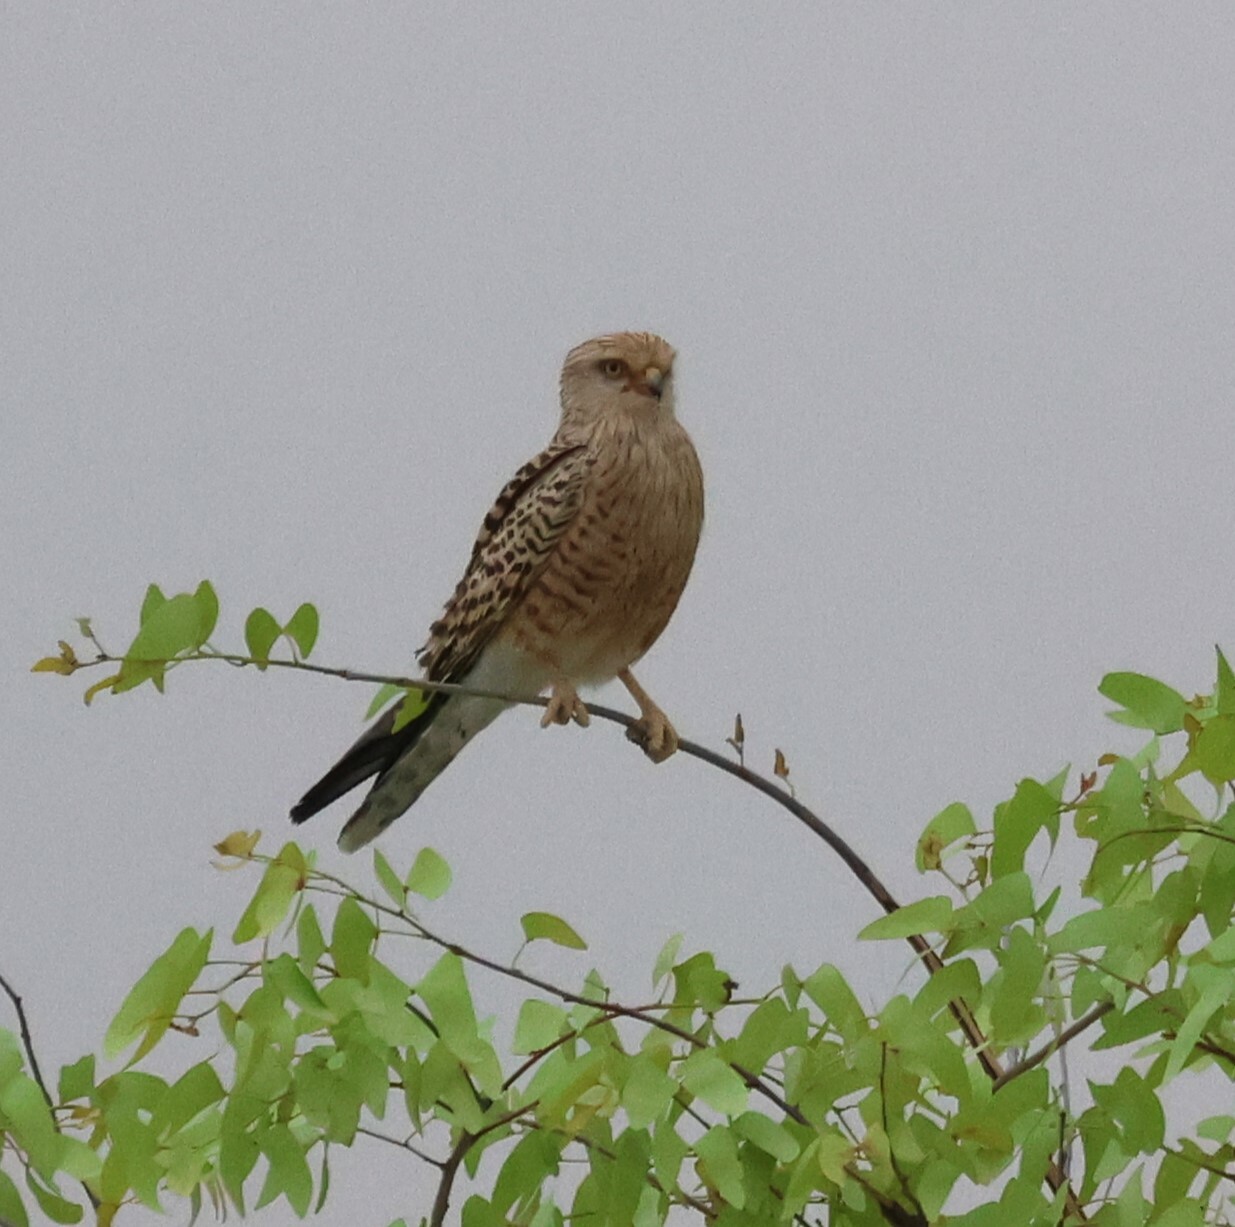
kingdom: Animalia
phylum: Chordata
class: Aves
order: Falconiformes
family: Falconidae
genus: Falco
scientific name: Falco rupicoloides
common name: Greater kestrel
